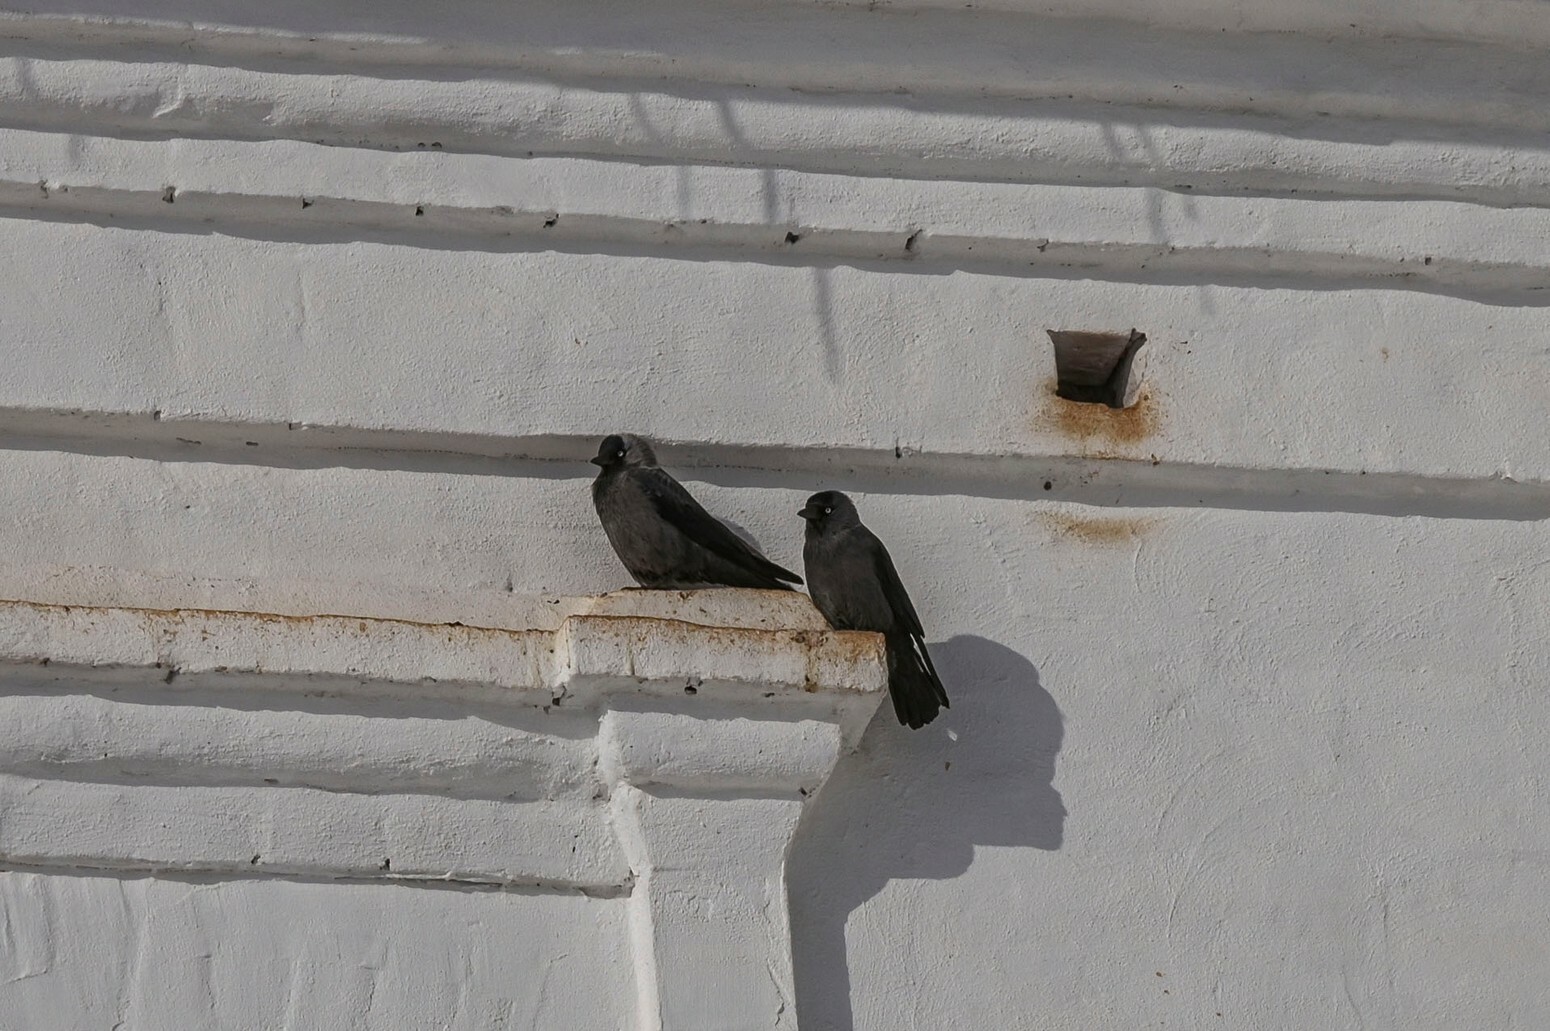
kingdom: Animalia
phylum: Chordata
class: Aves
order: Passeriformes
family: Corvidae
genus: Coloeus
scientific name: Coloeus monedula
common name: Western jackdaw
